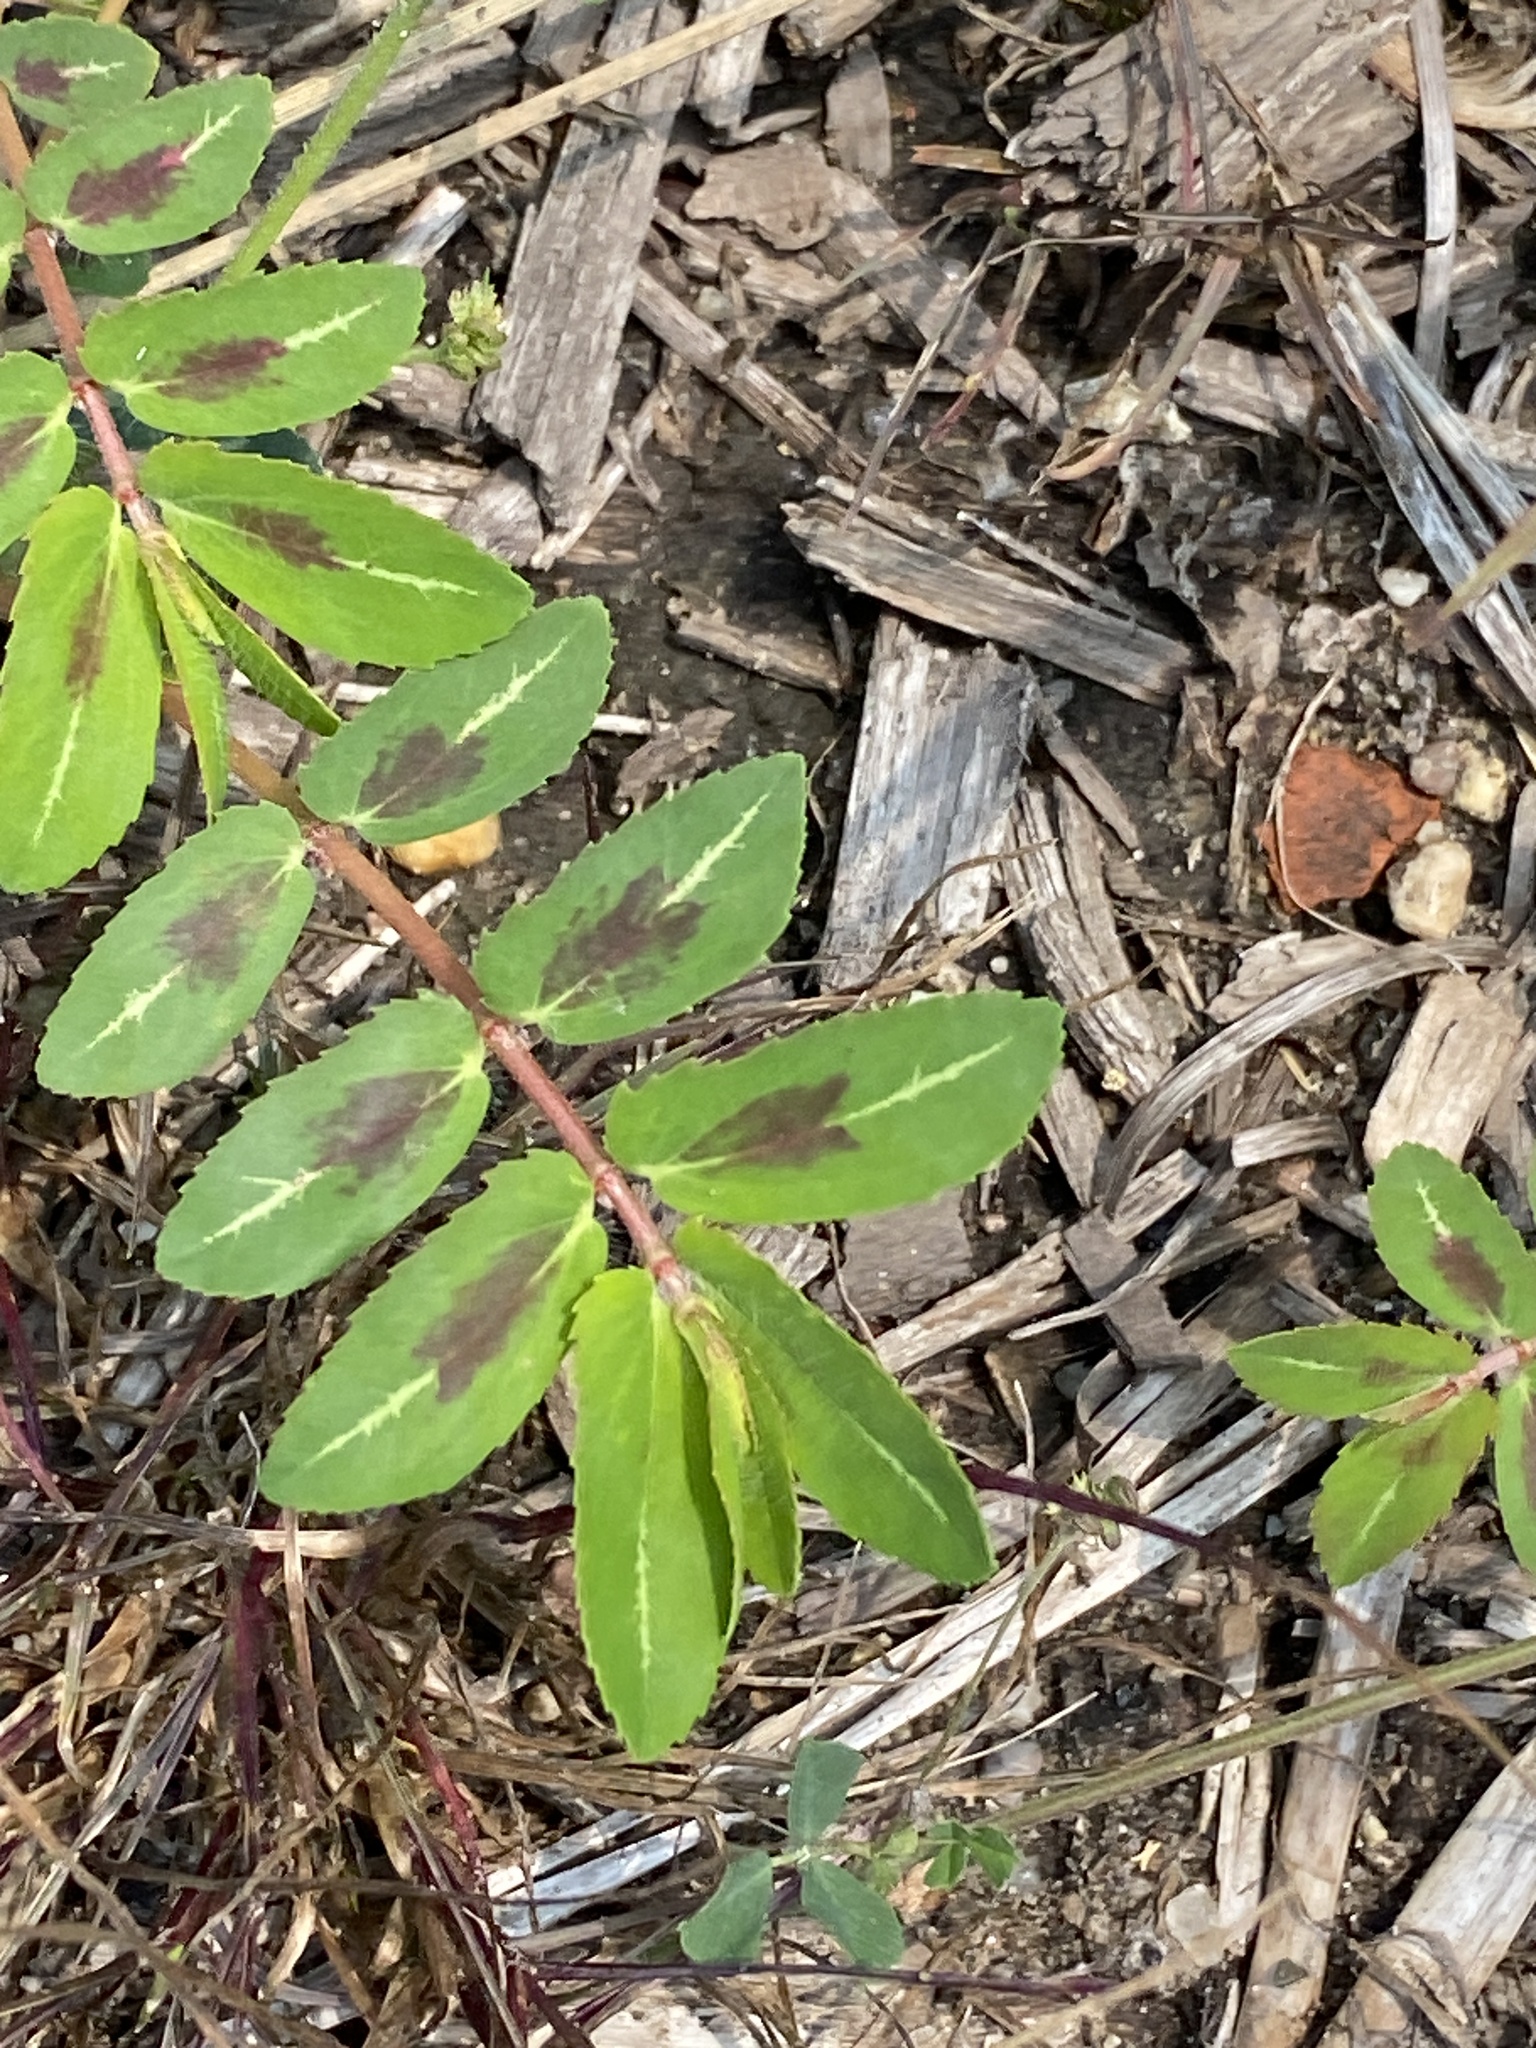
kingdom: Plantae
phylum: Tracheophyta
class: Magnoliopsida
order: Malpighiales
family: Euphorbiaceae
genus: Euphorbia
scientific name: Euphorbia nutans
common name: Eyebane
